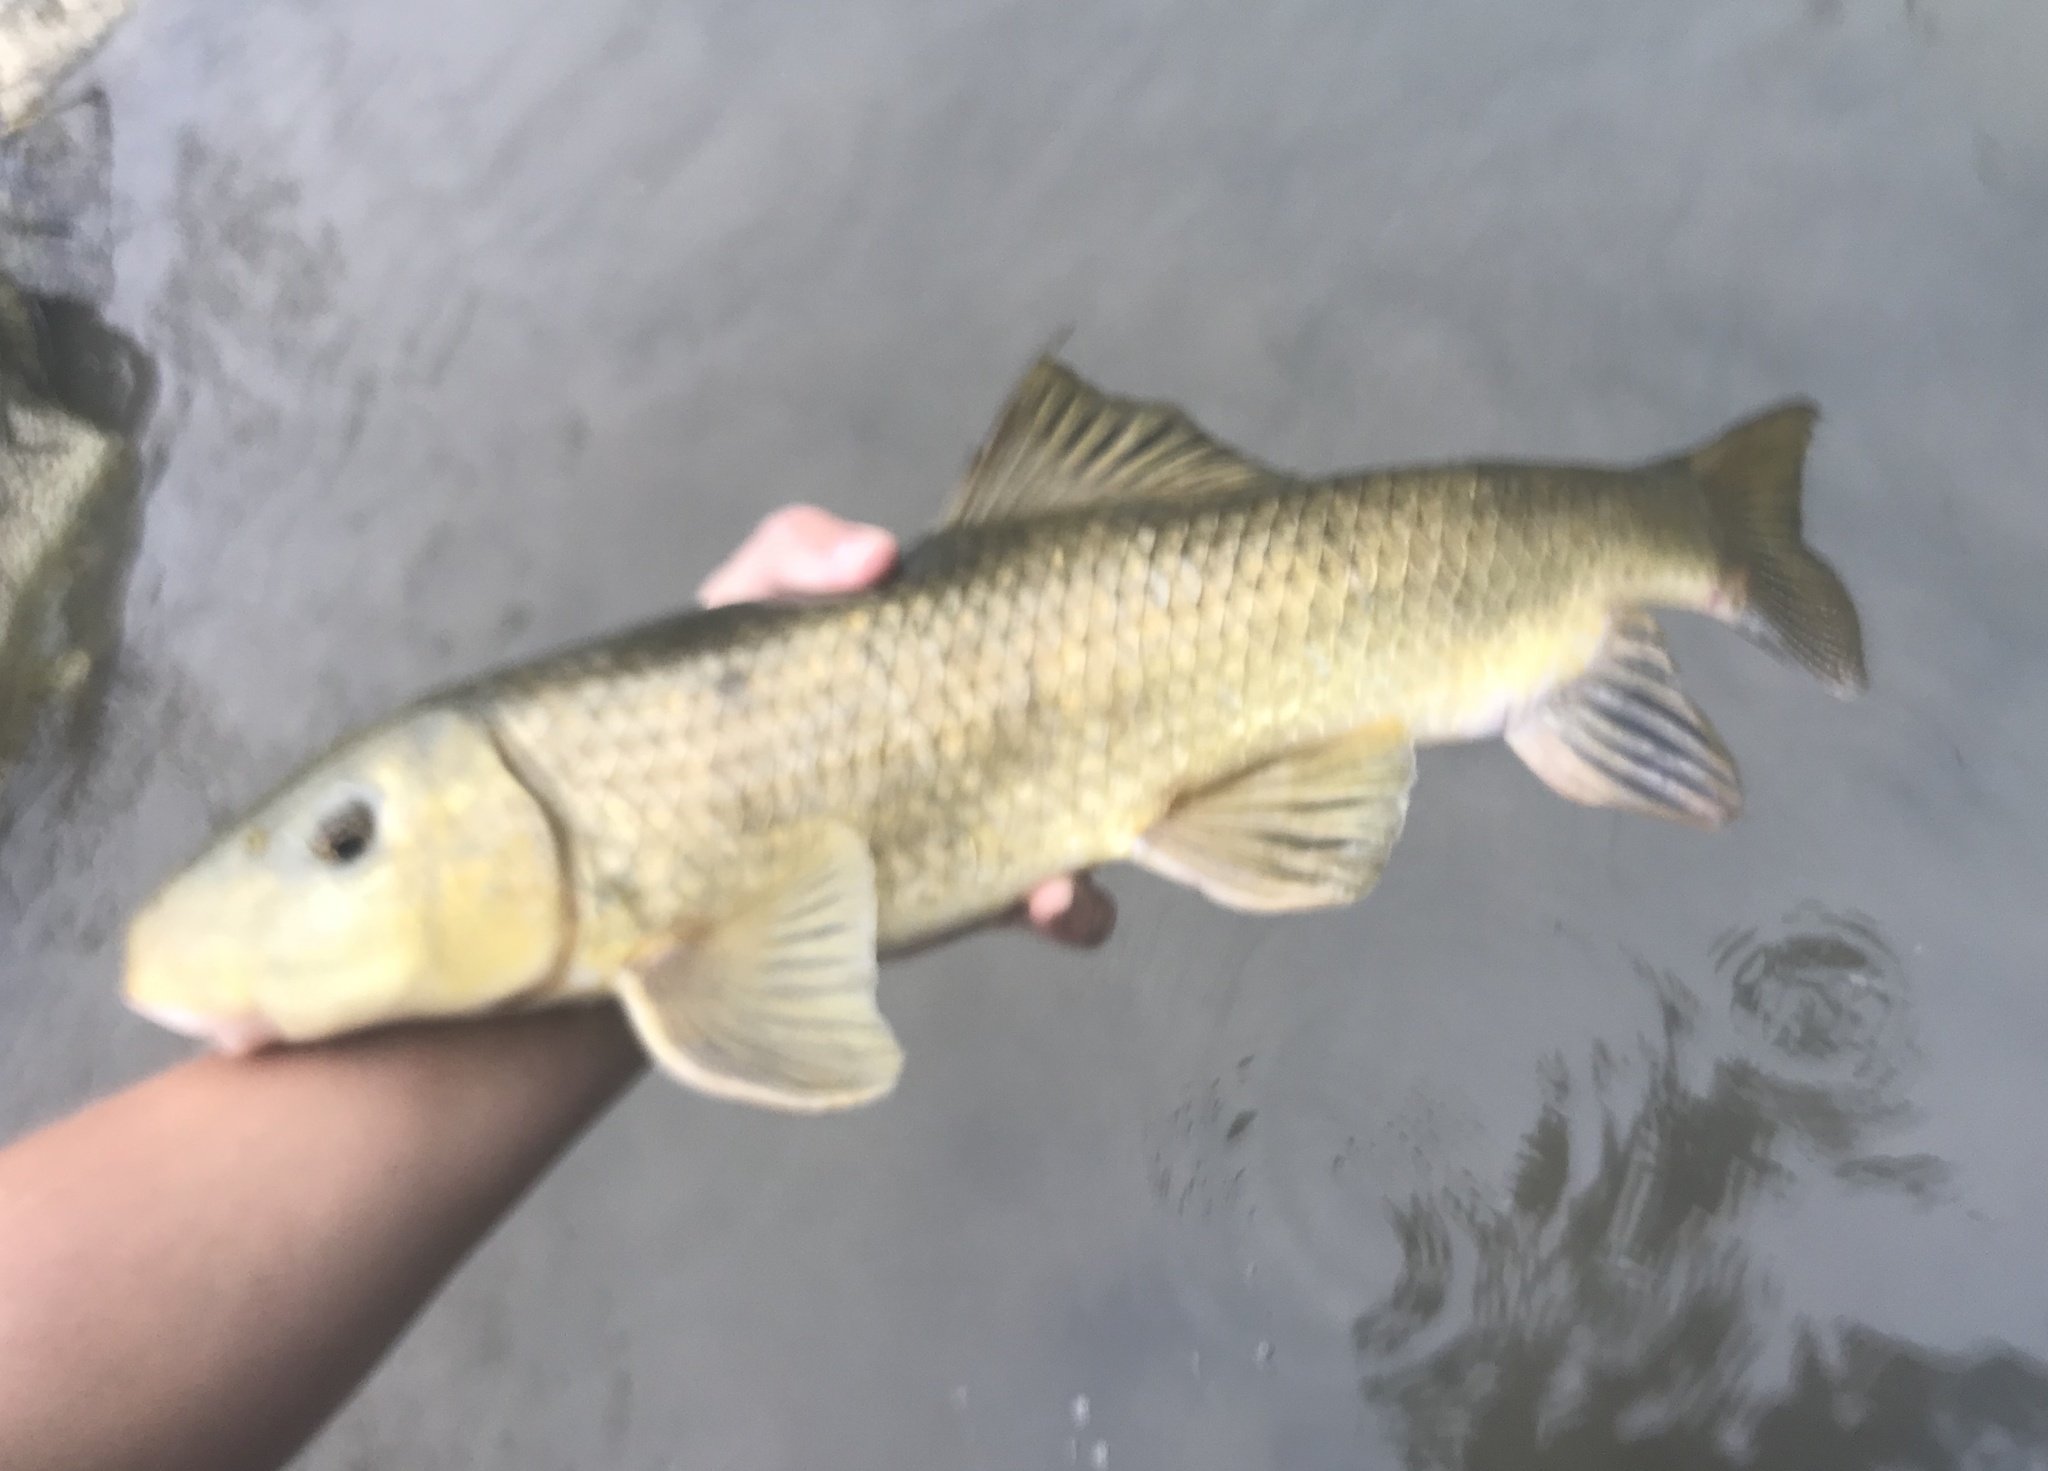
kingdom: Animalia
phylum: Chordata
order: Cypriniformes
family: Catostomidae
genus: Moxostoma
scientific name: Moxostoma congestum
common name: Gray redhorse
